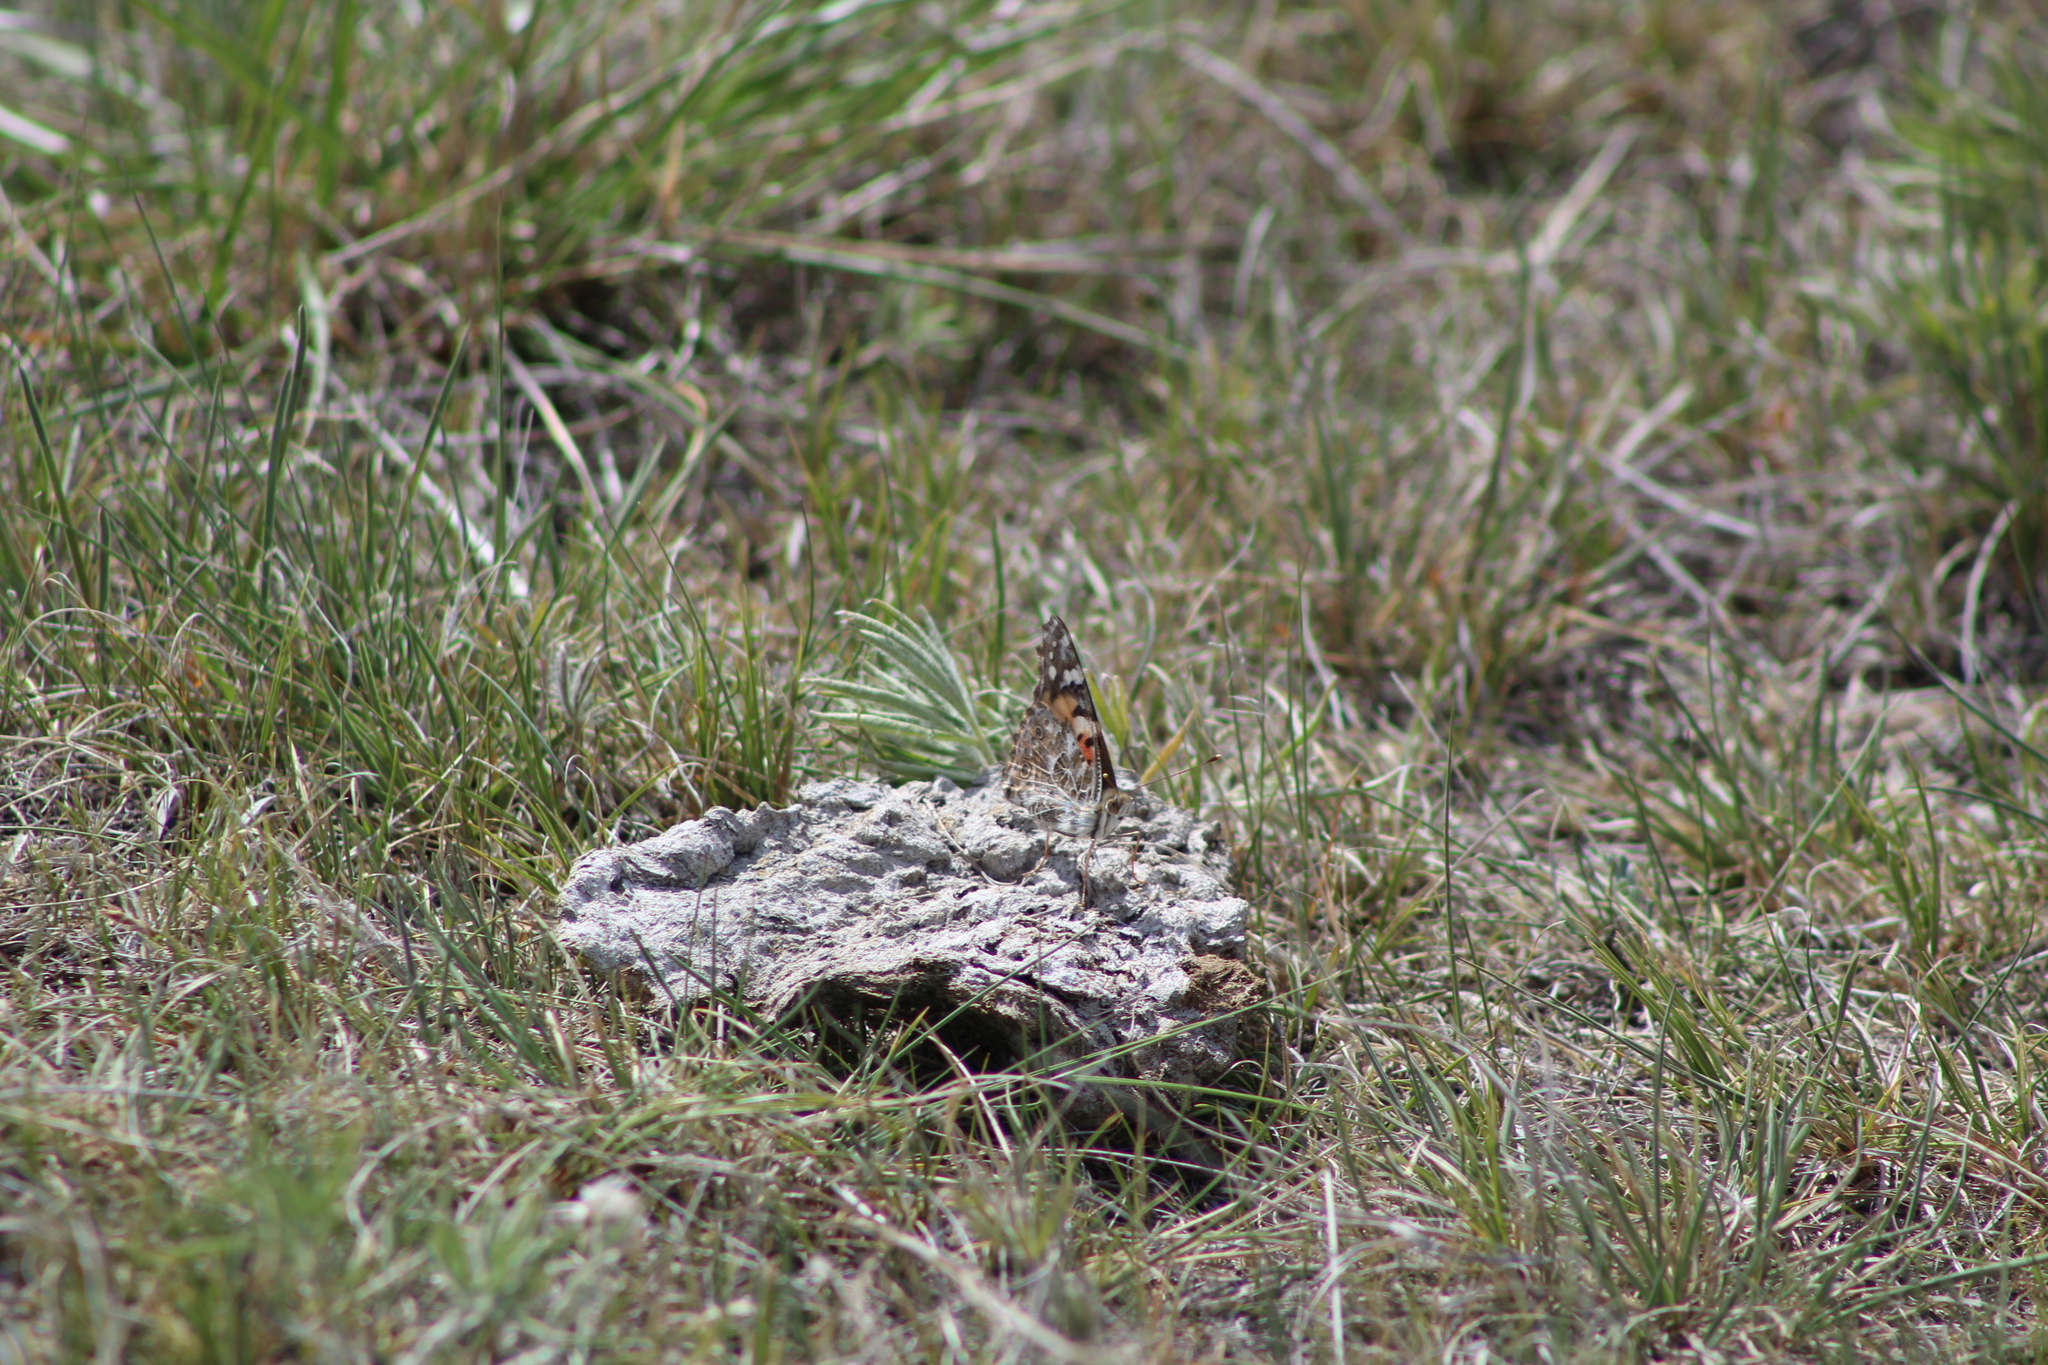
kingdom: Animalia
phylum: Arthropoda
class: Insecta
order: Lepidoptera
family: Nymphalidae
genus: Vanessa
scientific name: Vanessa cardui
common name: Painted lady
